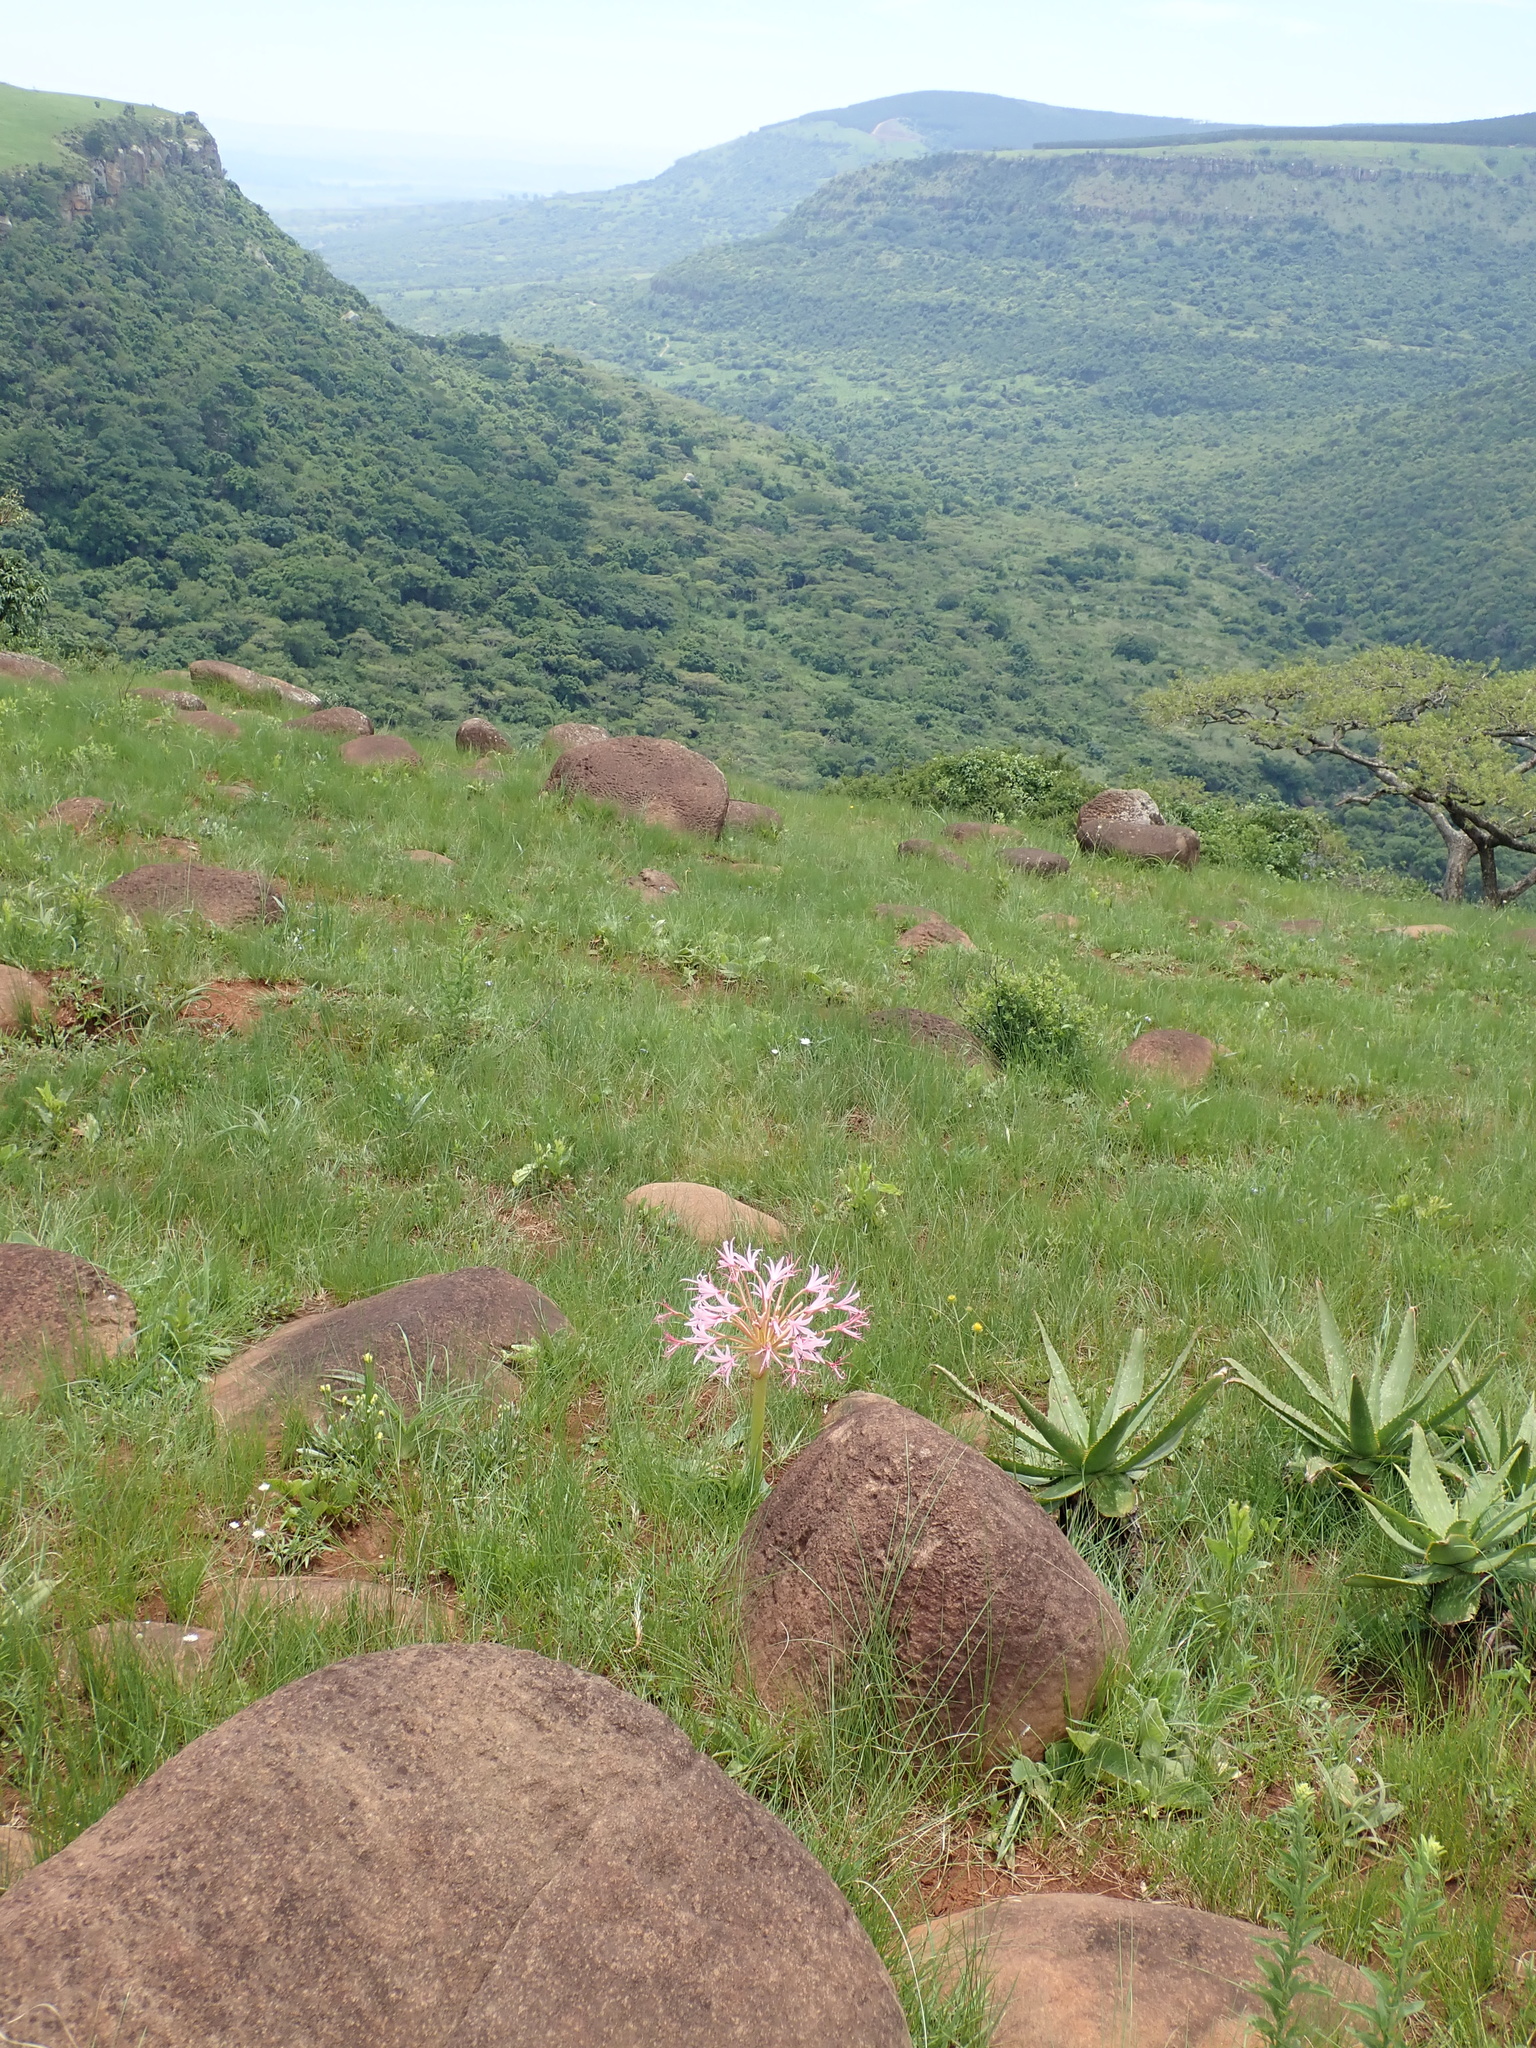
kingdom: Plantae
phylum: Tracheophyta
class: Liliopsida
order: Asparagales
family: Amaryllidaceae
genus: Brunsvigia
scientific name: Brunsvigia radulosa
